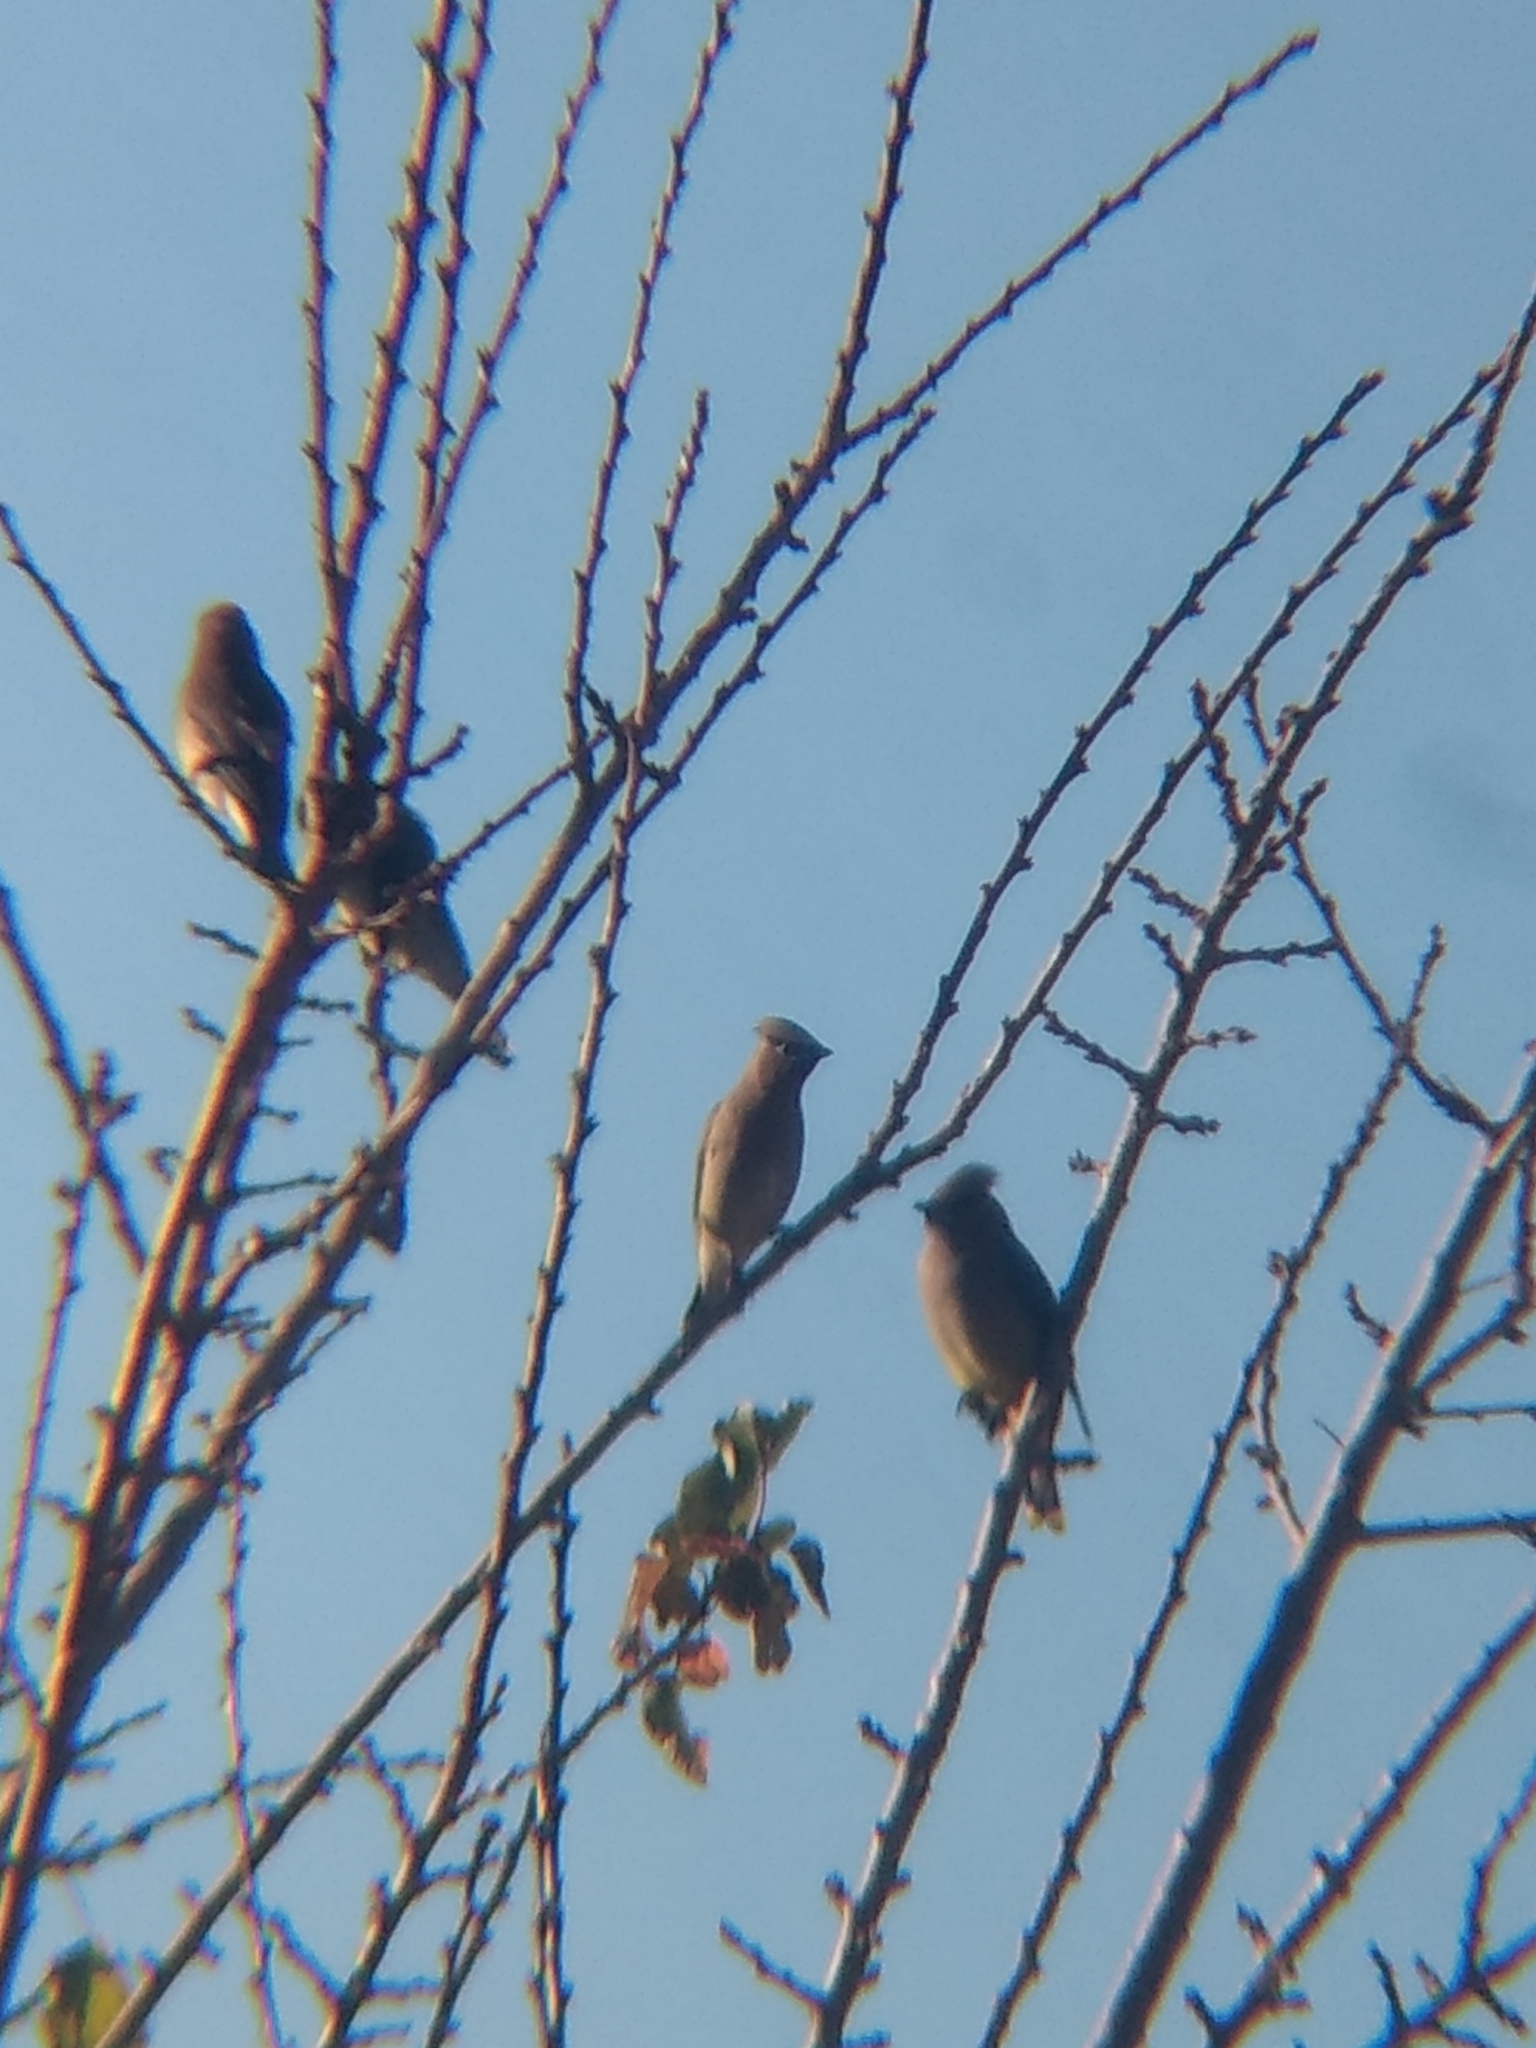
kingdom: Animalia
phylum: Chordata
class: Aves
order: Passeriformes
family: Bombycillidae
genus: Bombycilla
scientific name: Bombycilla cedrorum
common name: Cedar waxwing
